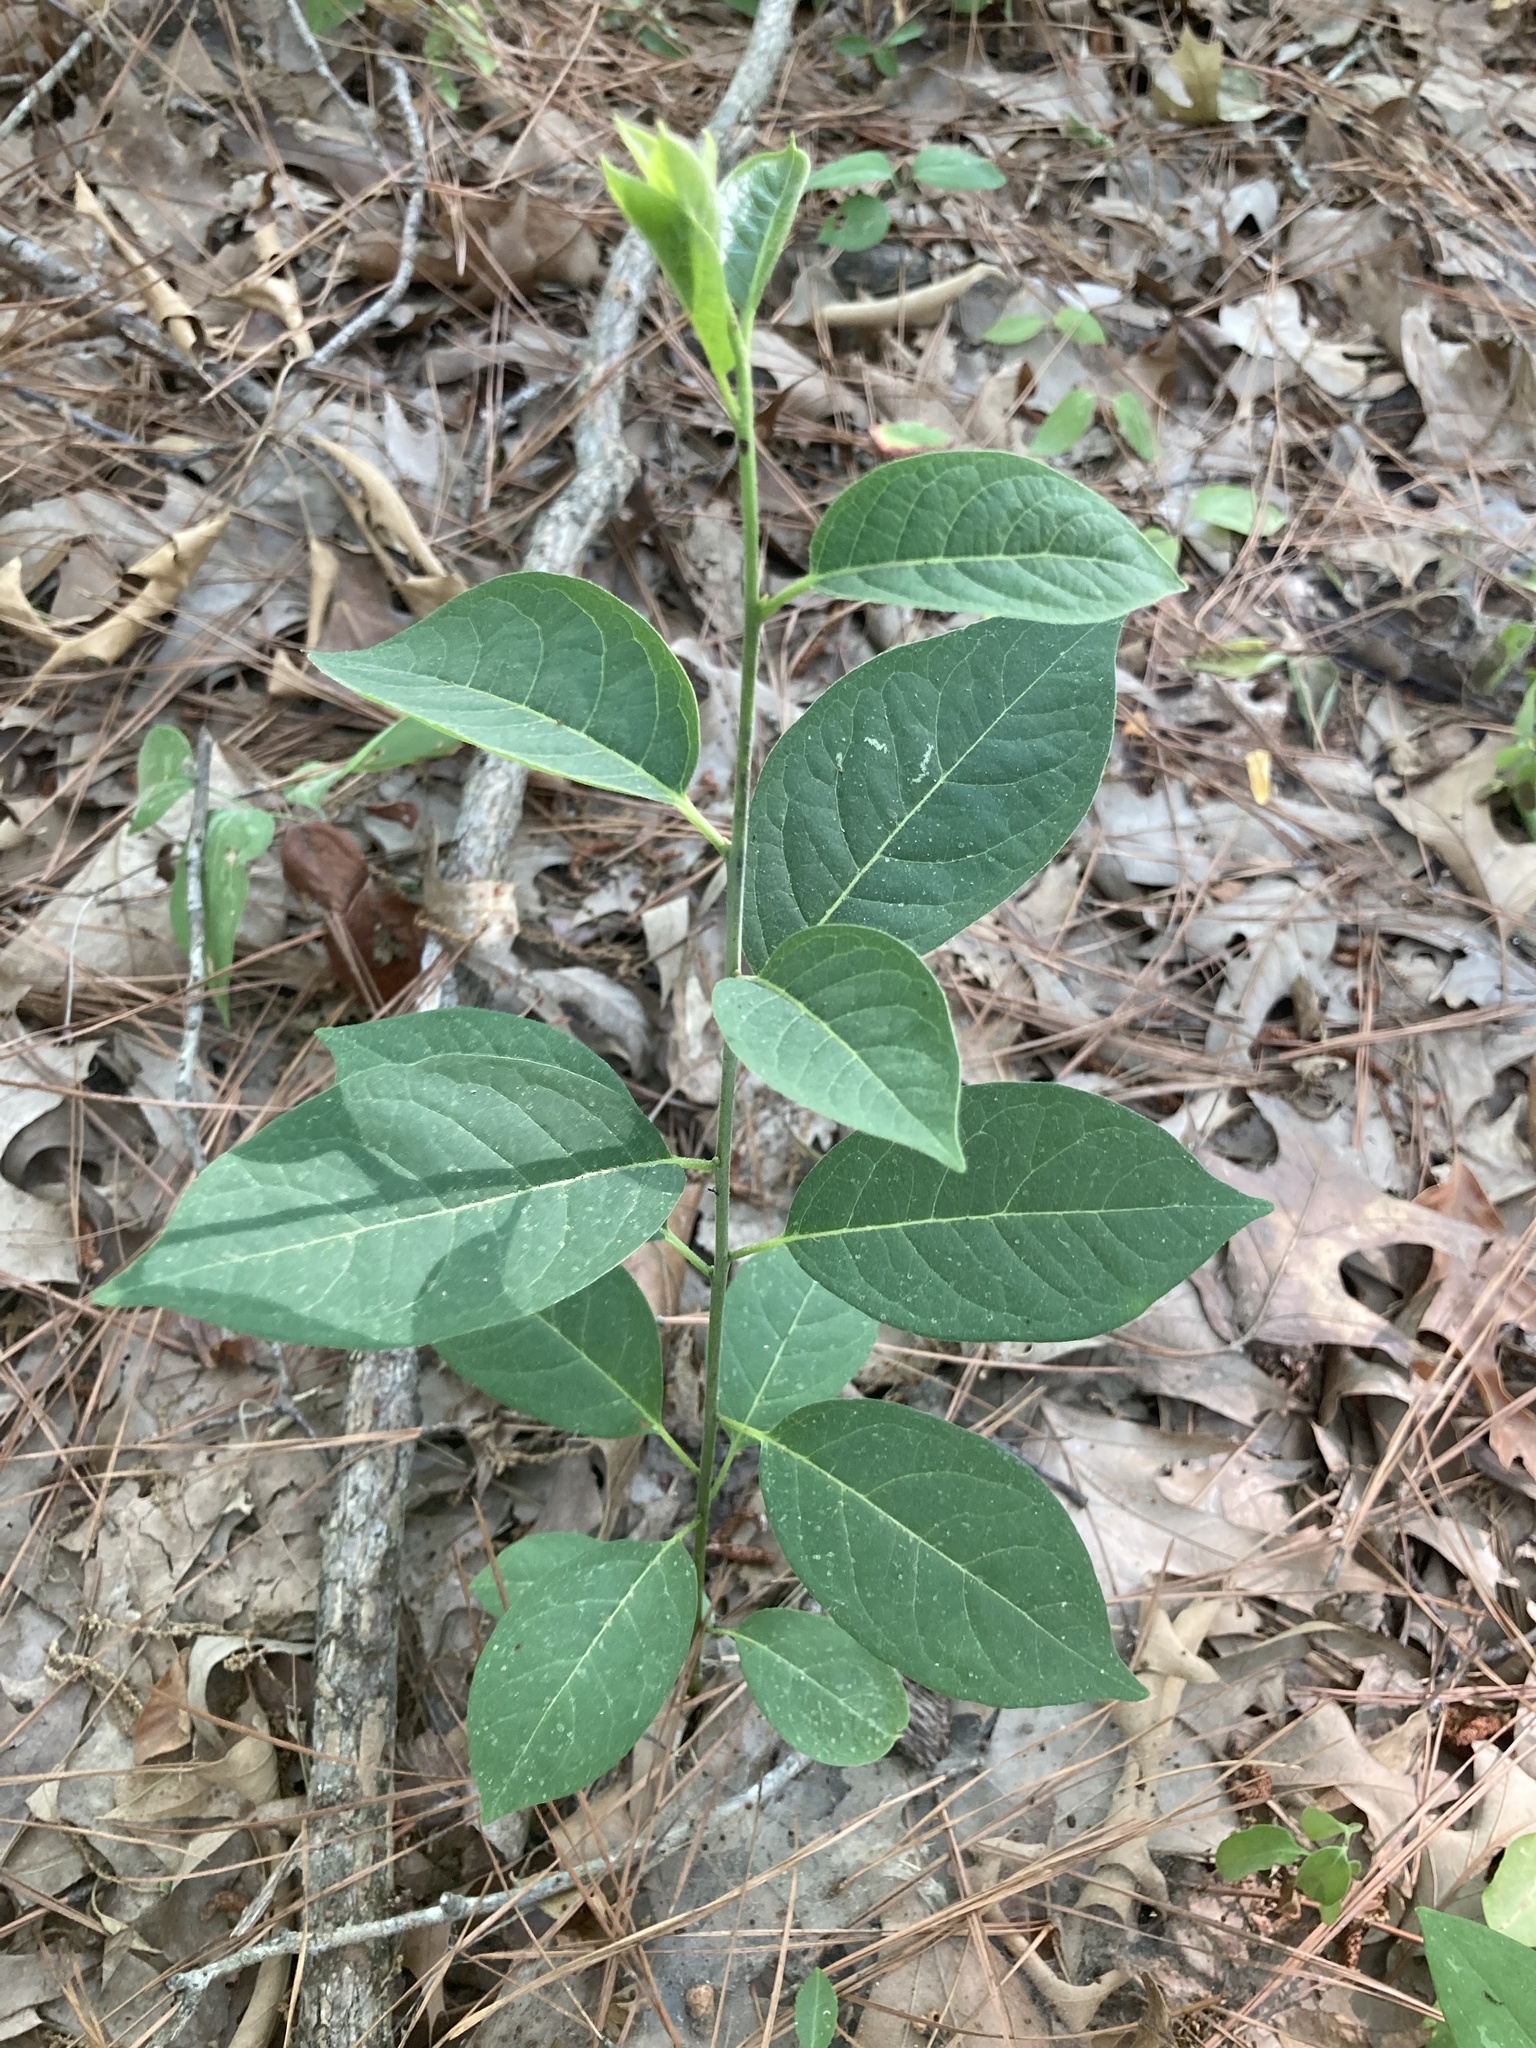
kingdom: Plantae
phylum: Tracheophyta
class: Magnoliopsida
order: Ericales
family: Ebenaceae
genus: Diospyros
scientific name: Diospyros virginiana
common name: Persimmon
